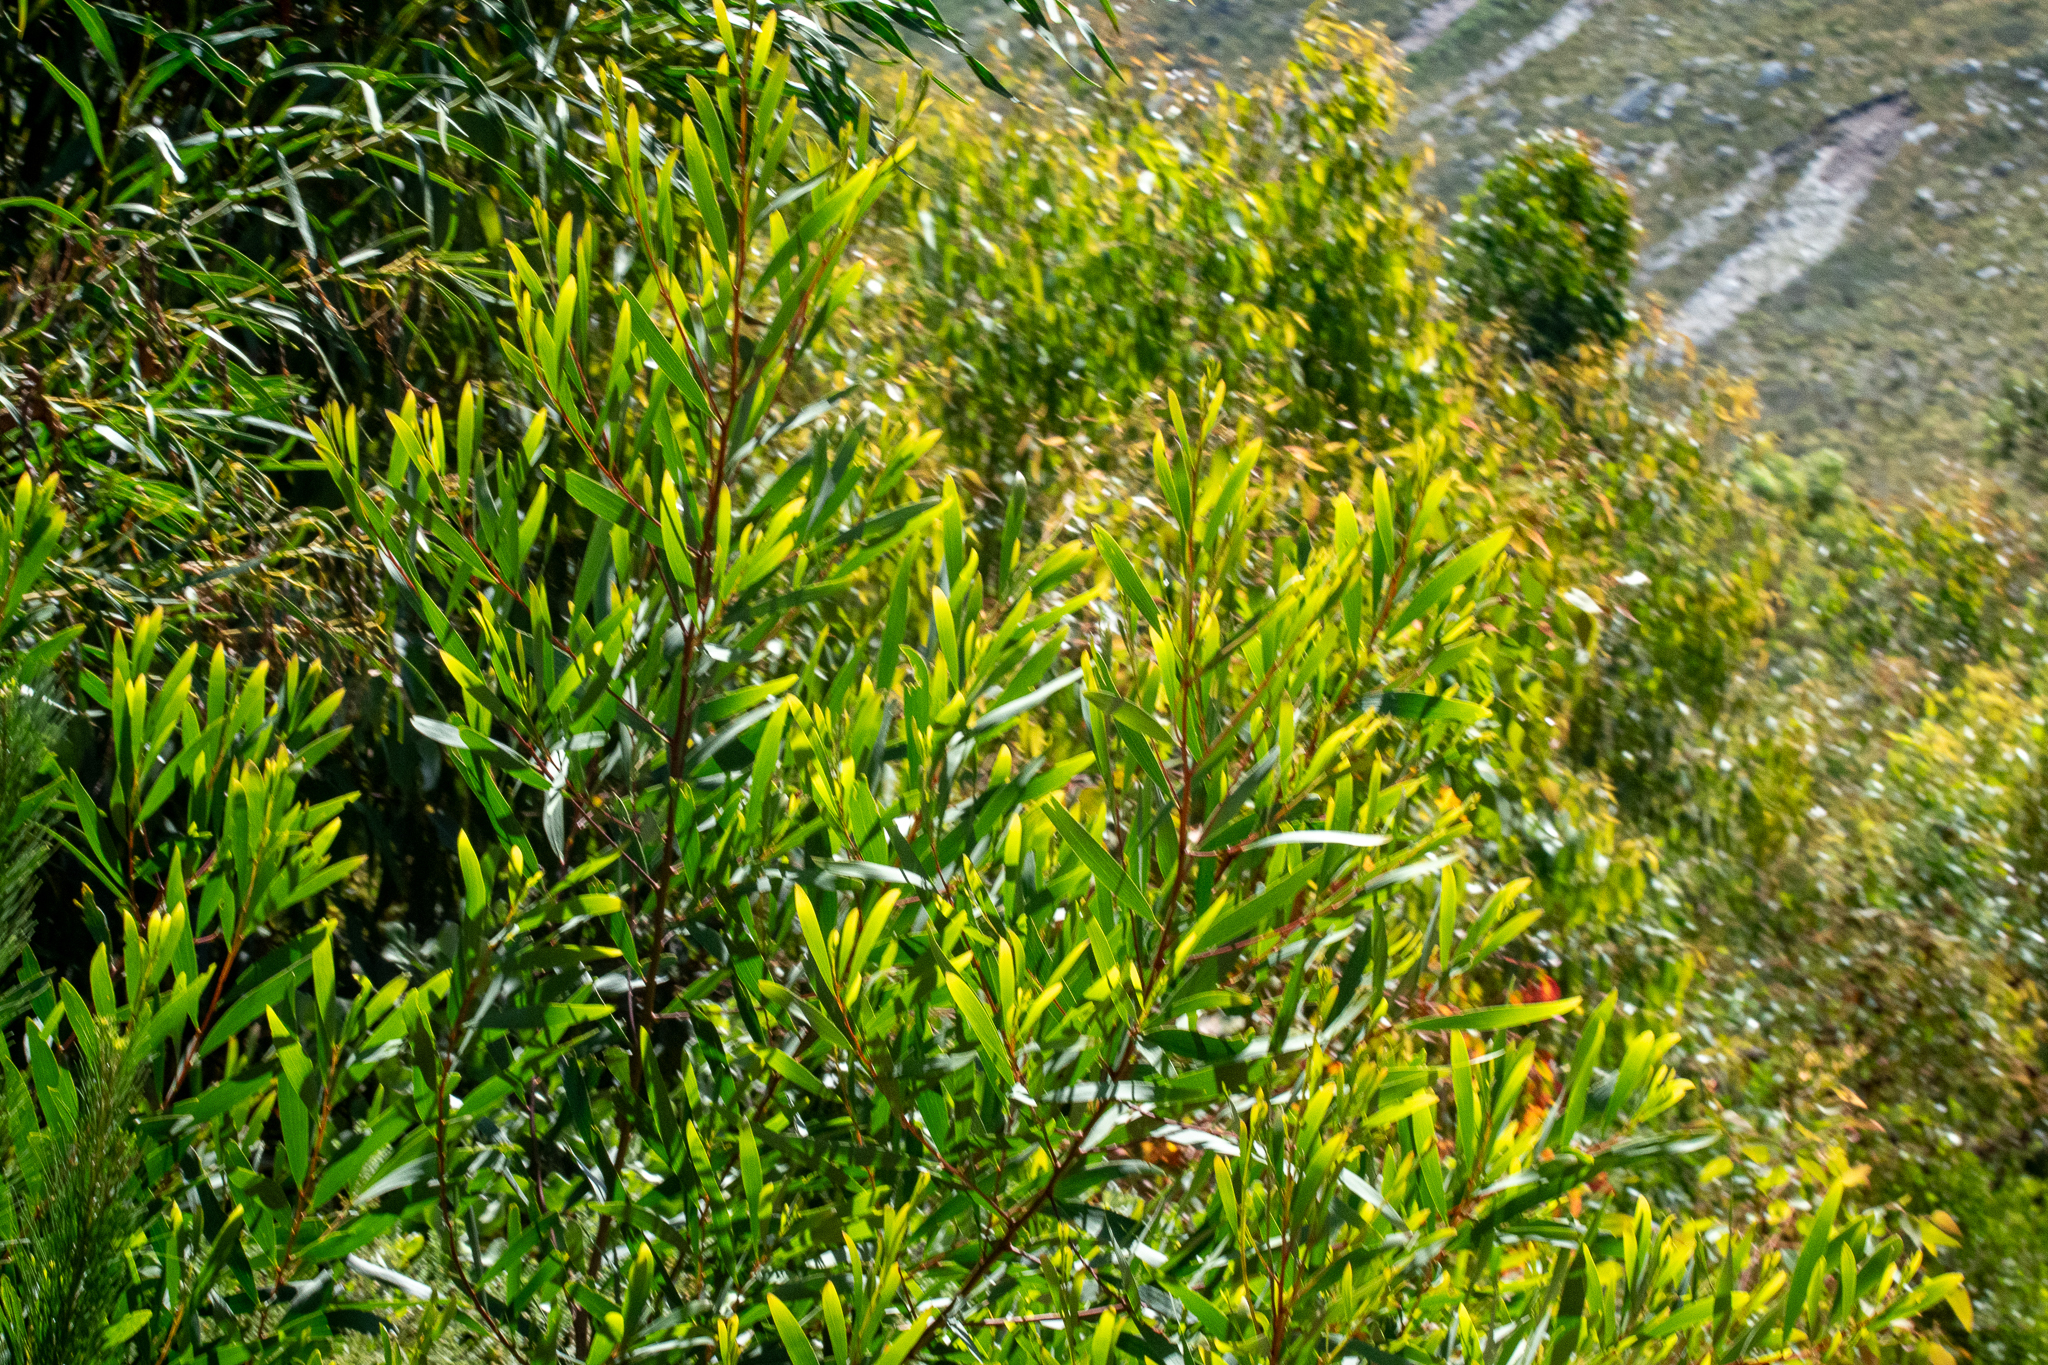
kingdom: Plantae
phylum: Tracheophyta
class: Magnoliopsida
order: Fabales
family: Fabaceae
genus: Acacia
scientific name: Acacia longifolia
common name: Sydney golden wattle
